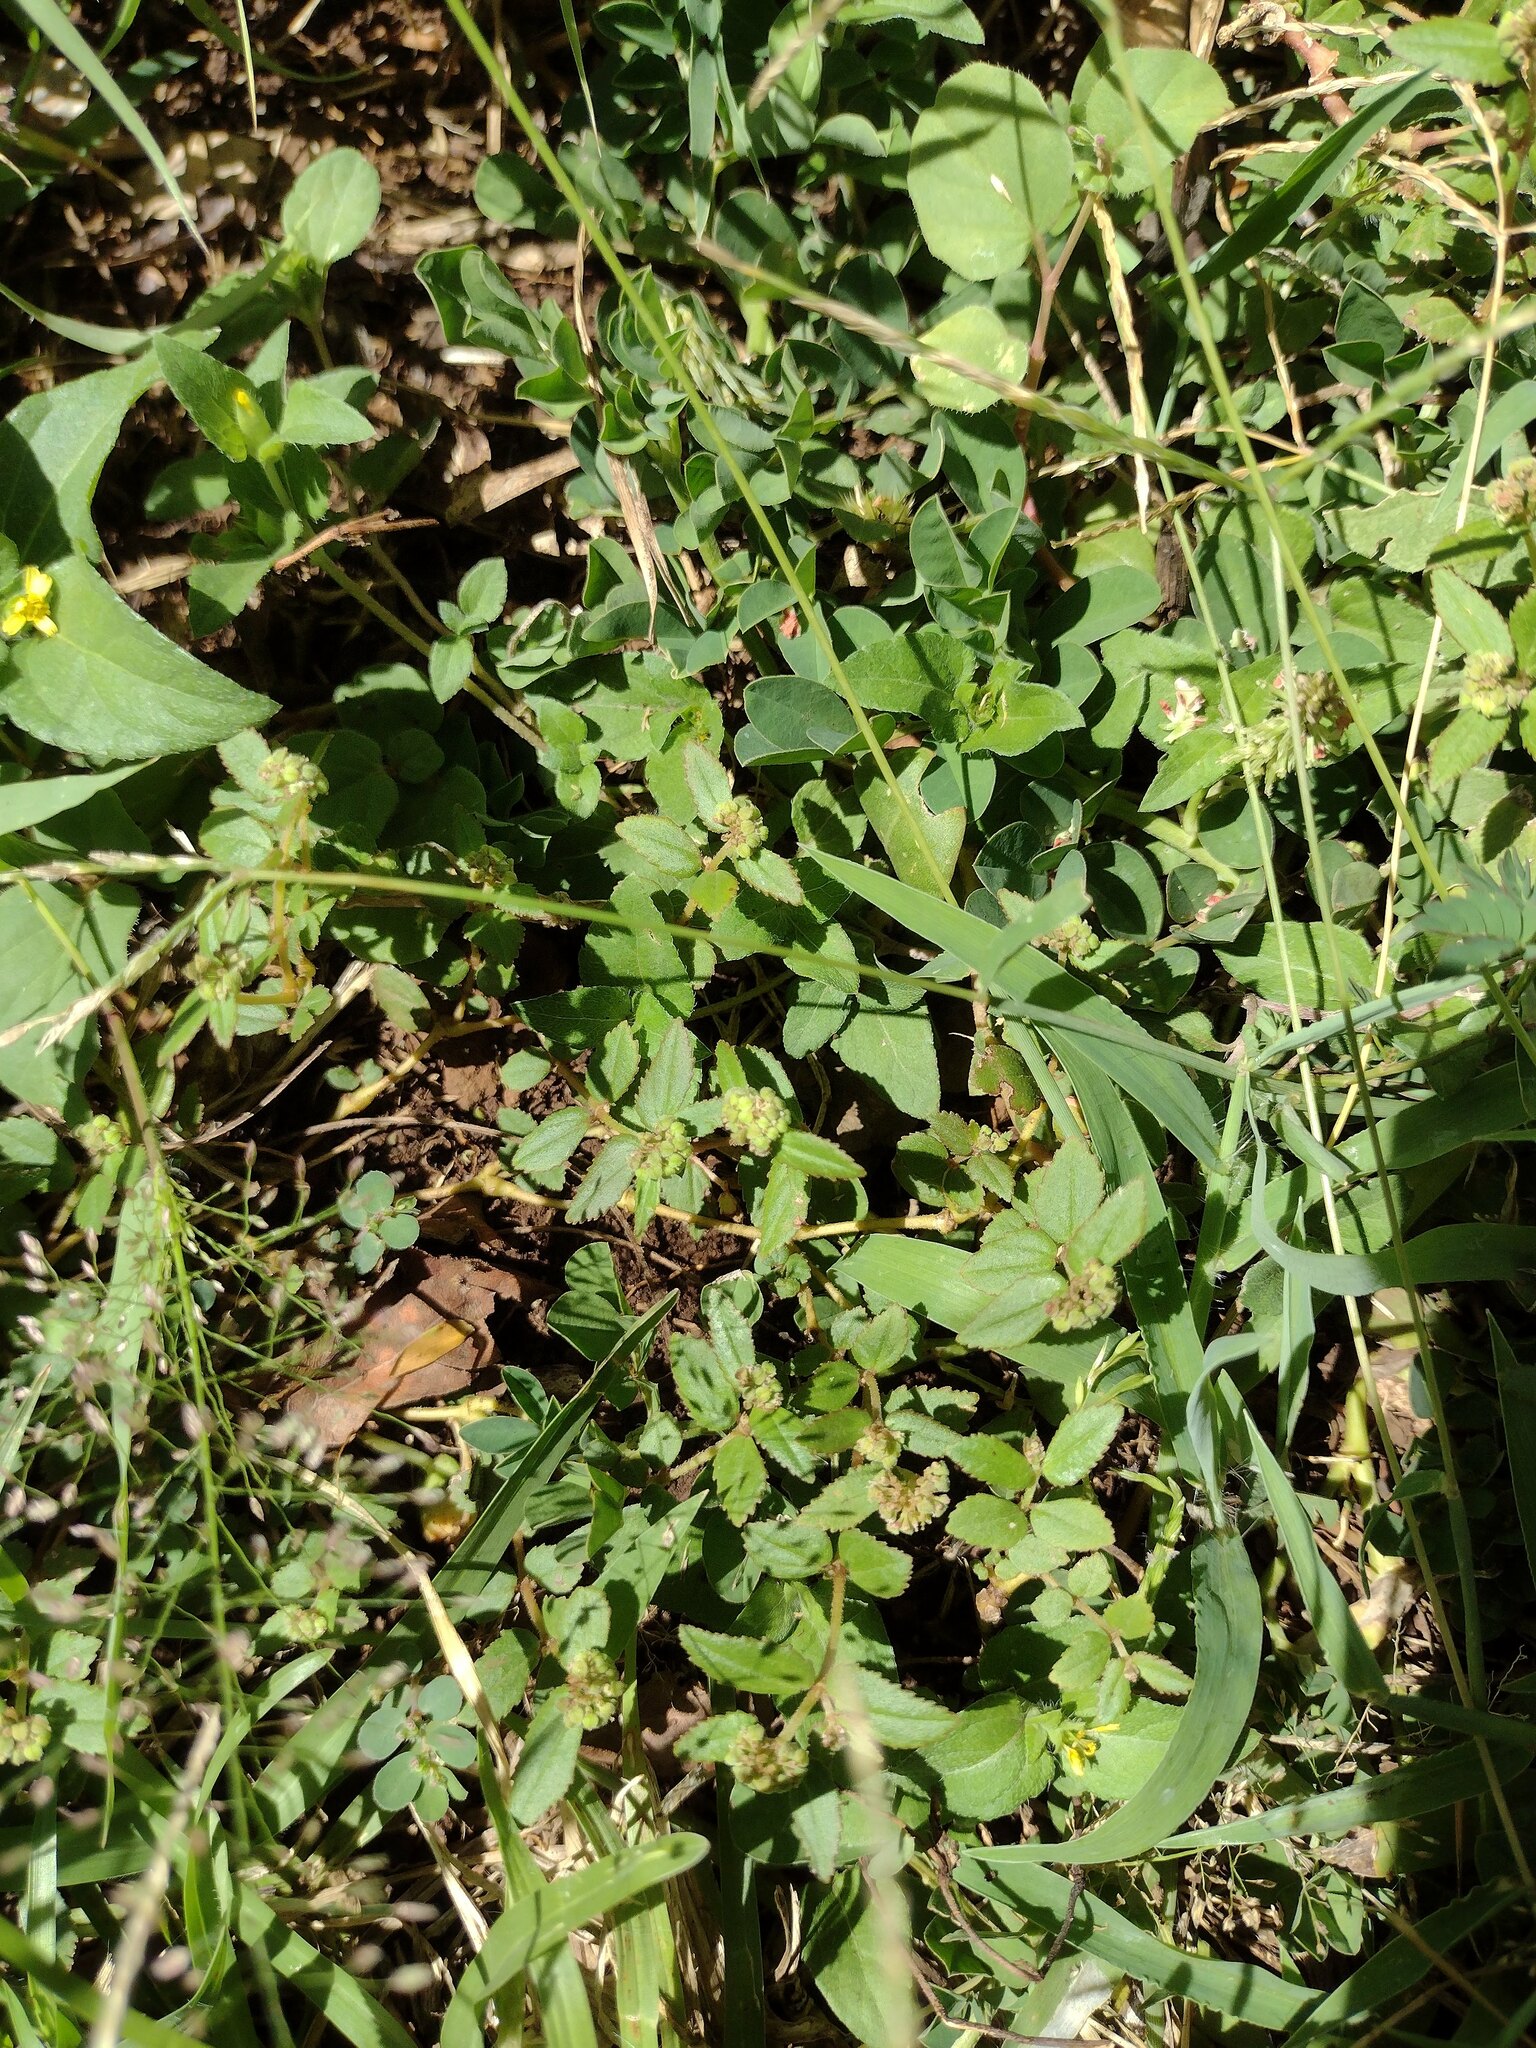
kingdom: Plantae
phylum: Tracheophyta
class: Magnoliopsida
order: Malpighiales
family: Euphorbiaceae
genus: Euphorbia
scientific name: Euphorbia ophthalmica
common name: Florida hammock sandmat
